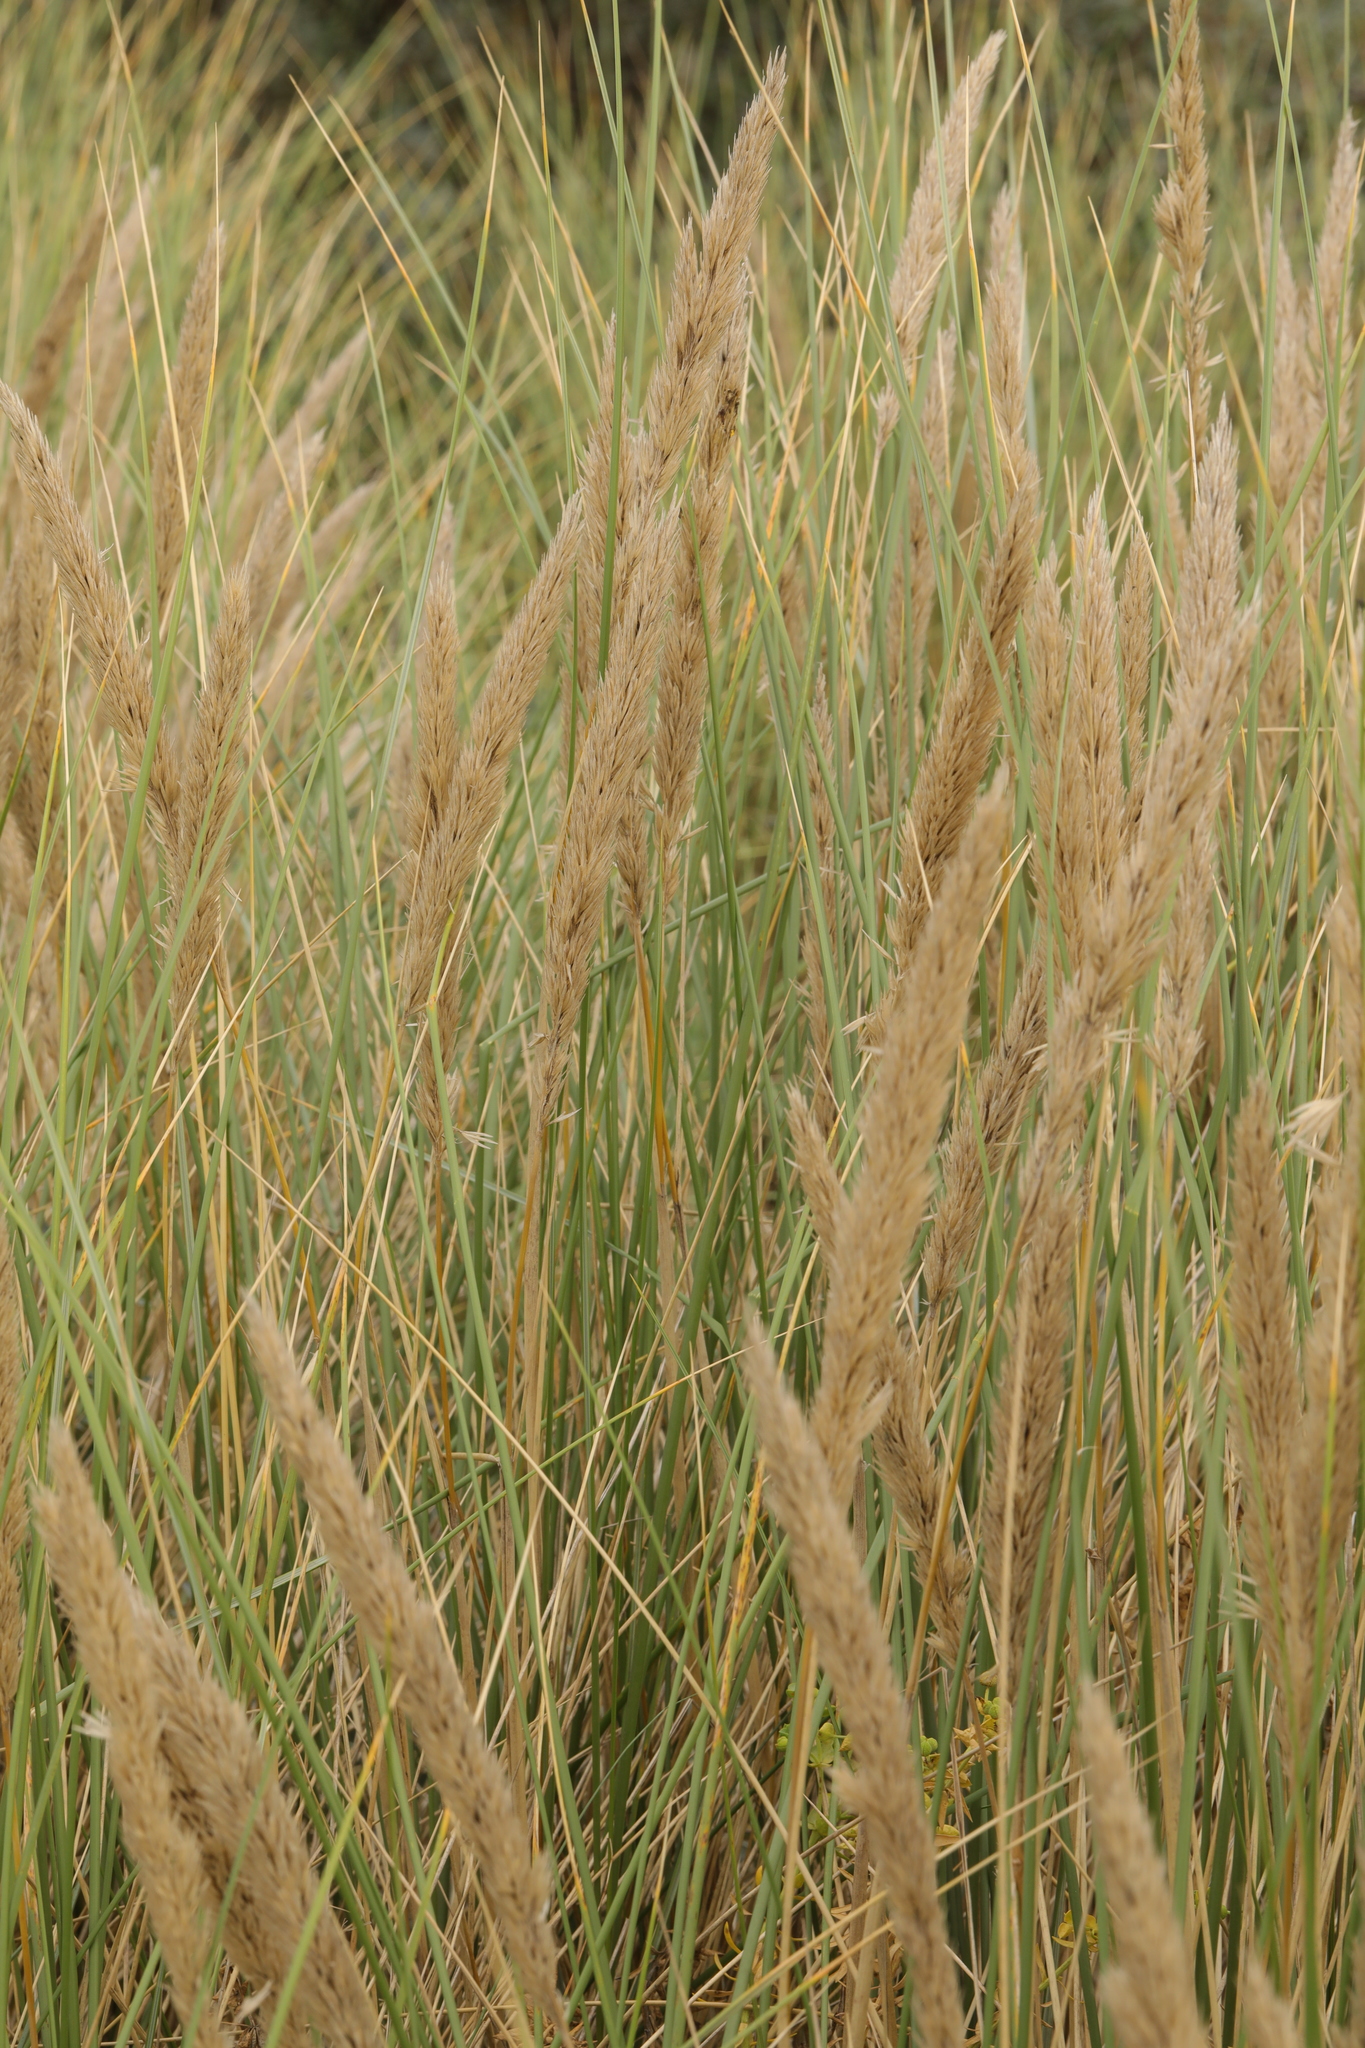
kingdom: Plantae
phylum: Tracheophyta
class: Liliopsida
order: Poales
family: Poaceae
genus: Calamagrostis
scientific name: Calamagrostis arenaria
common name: European beachgrass
